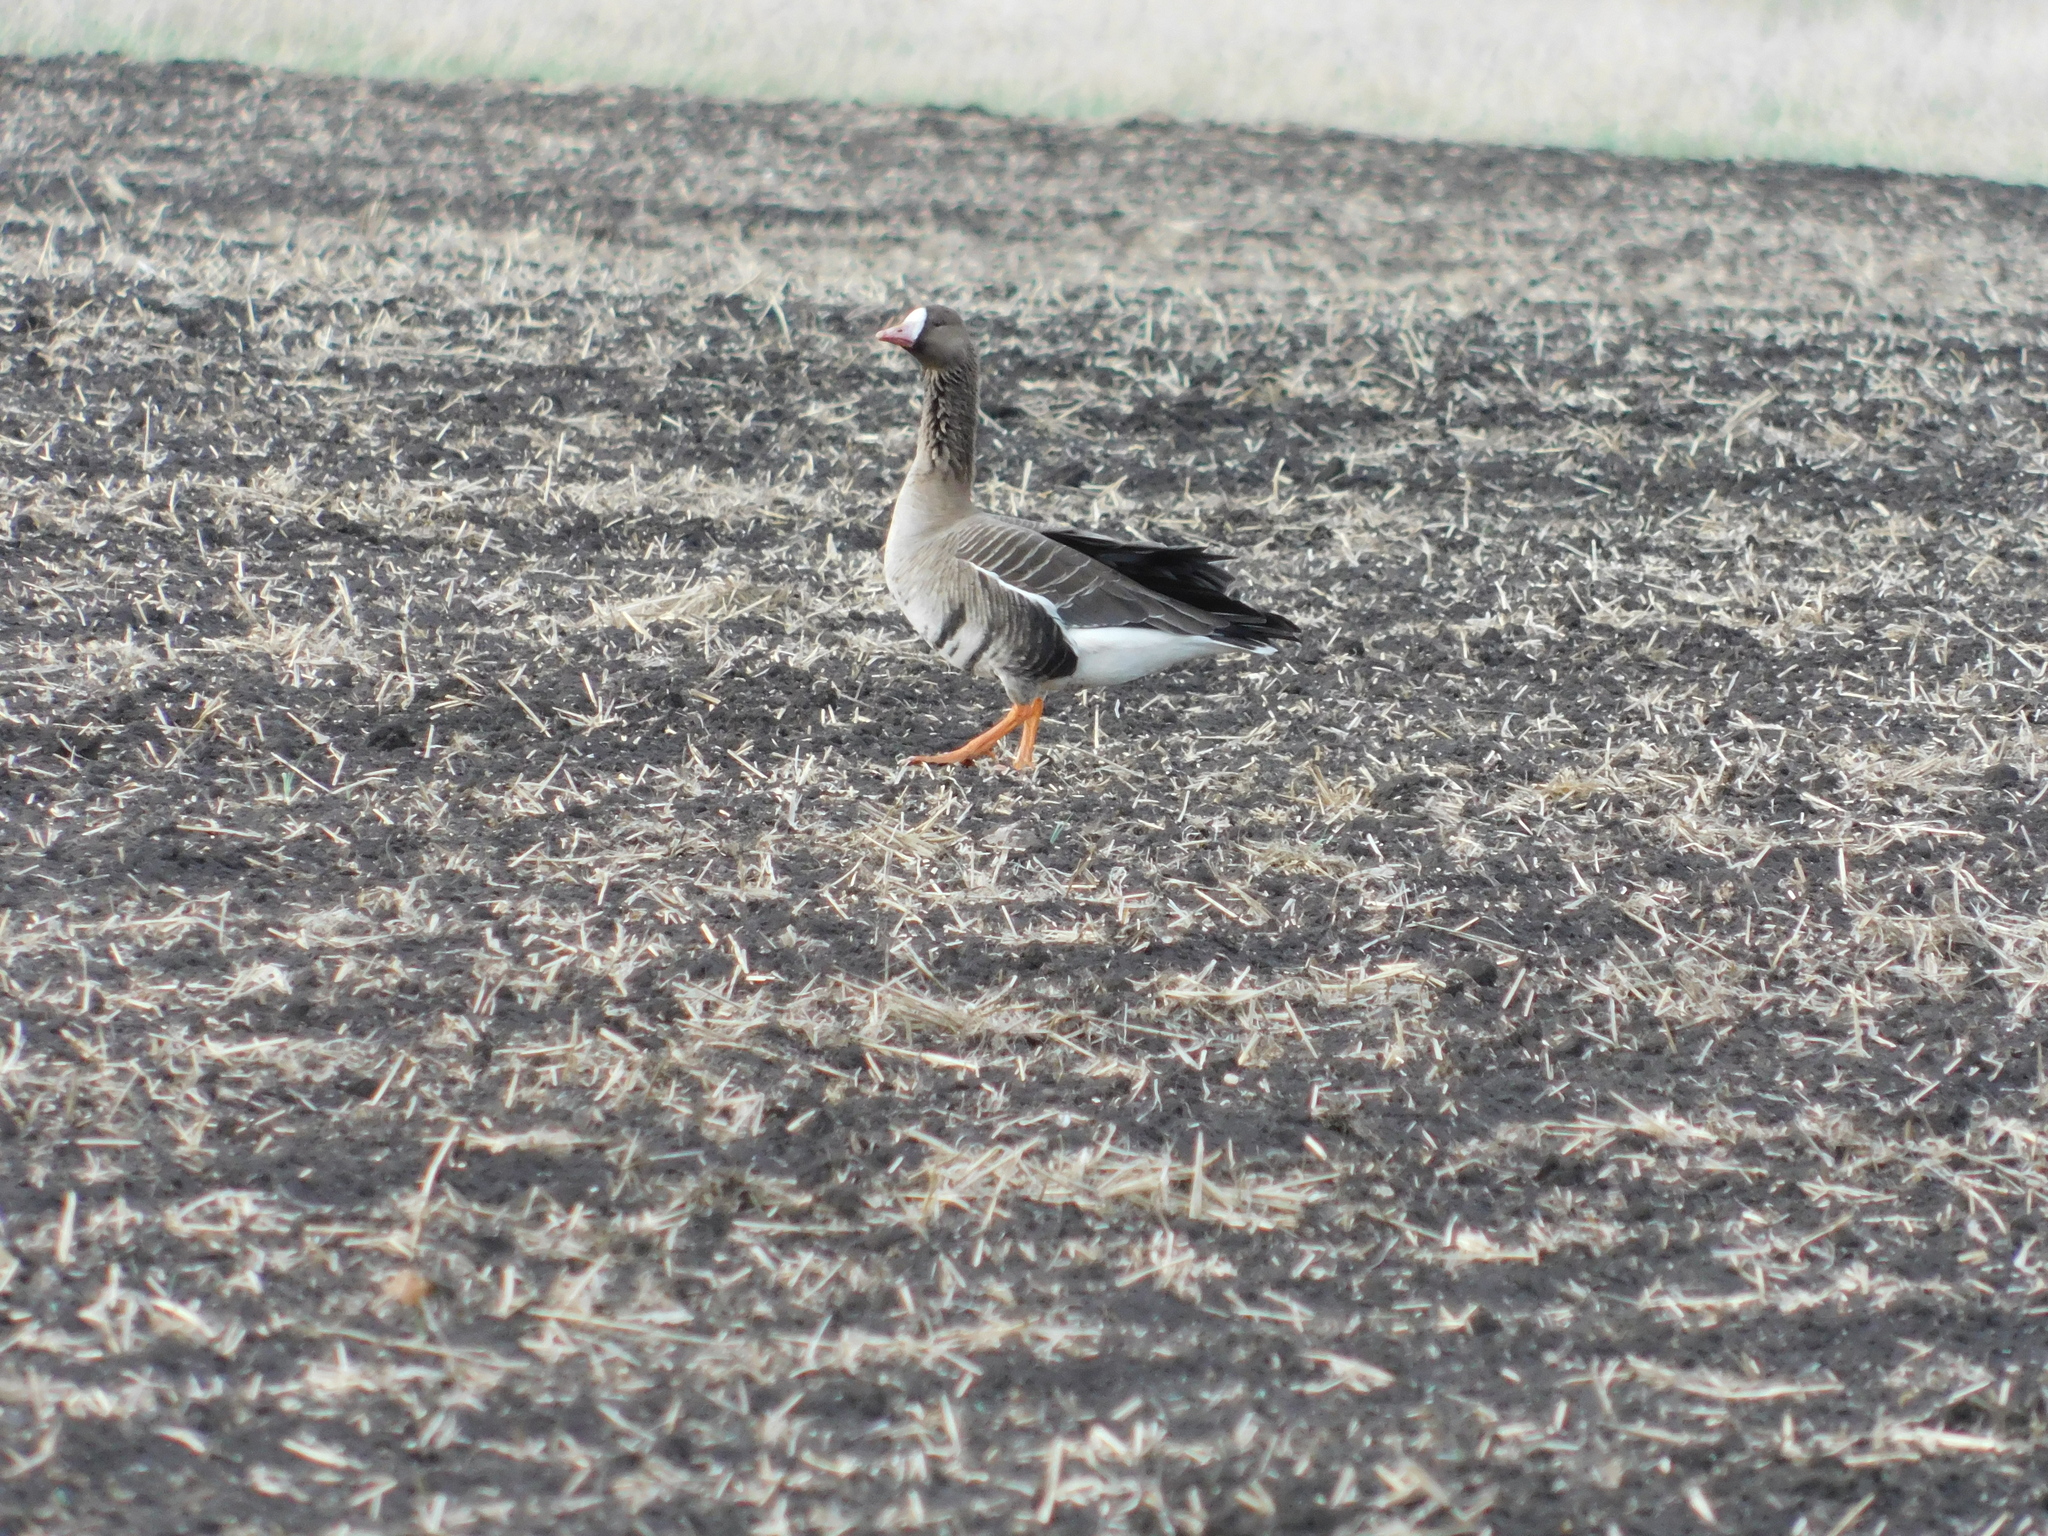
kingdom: Animalia
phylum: Chordata
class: Aves
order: Anseriformes
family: Anatidae
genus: Anser
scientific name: Anser albifrons
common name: Greater white-fronted goose
